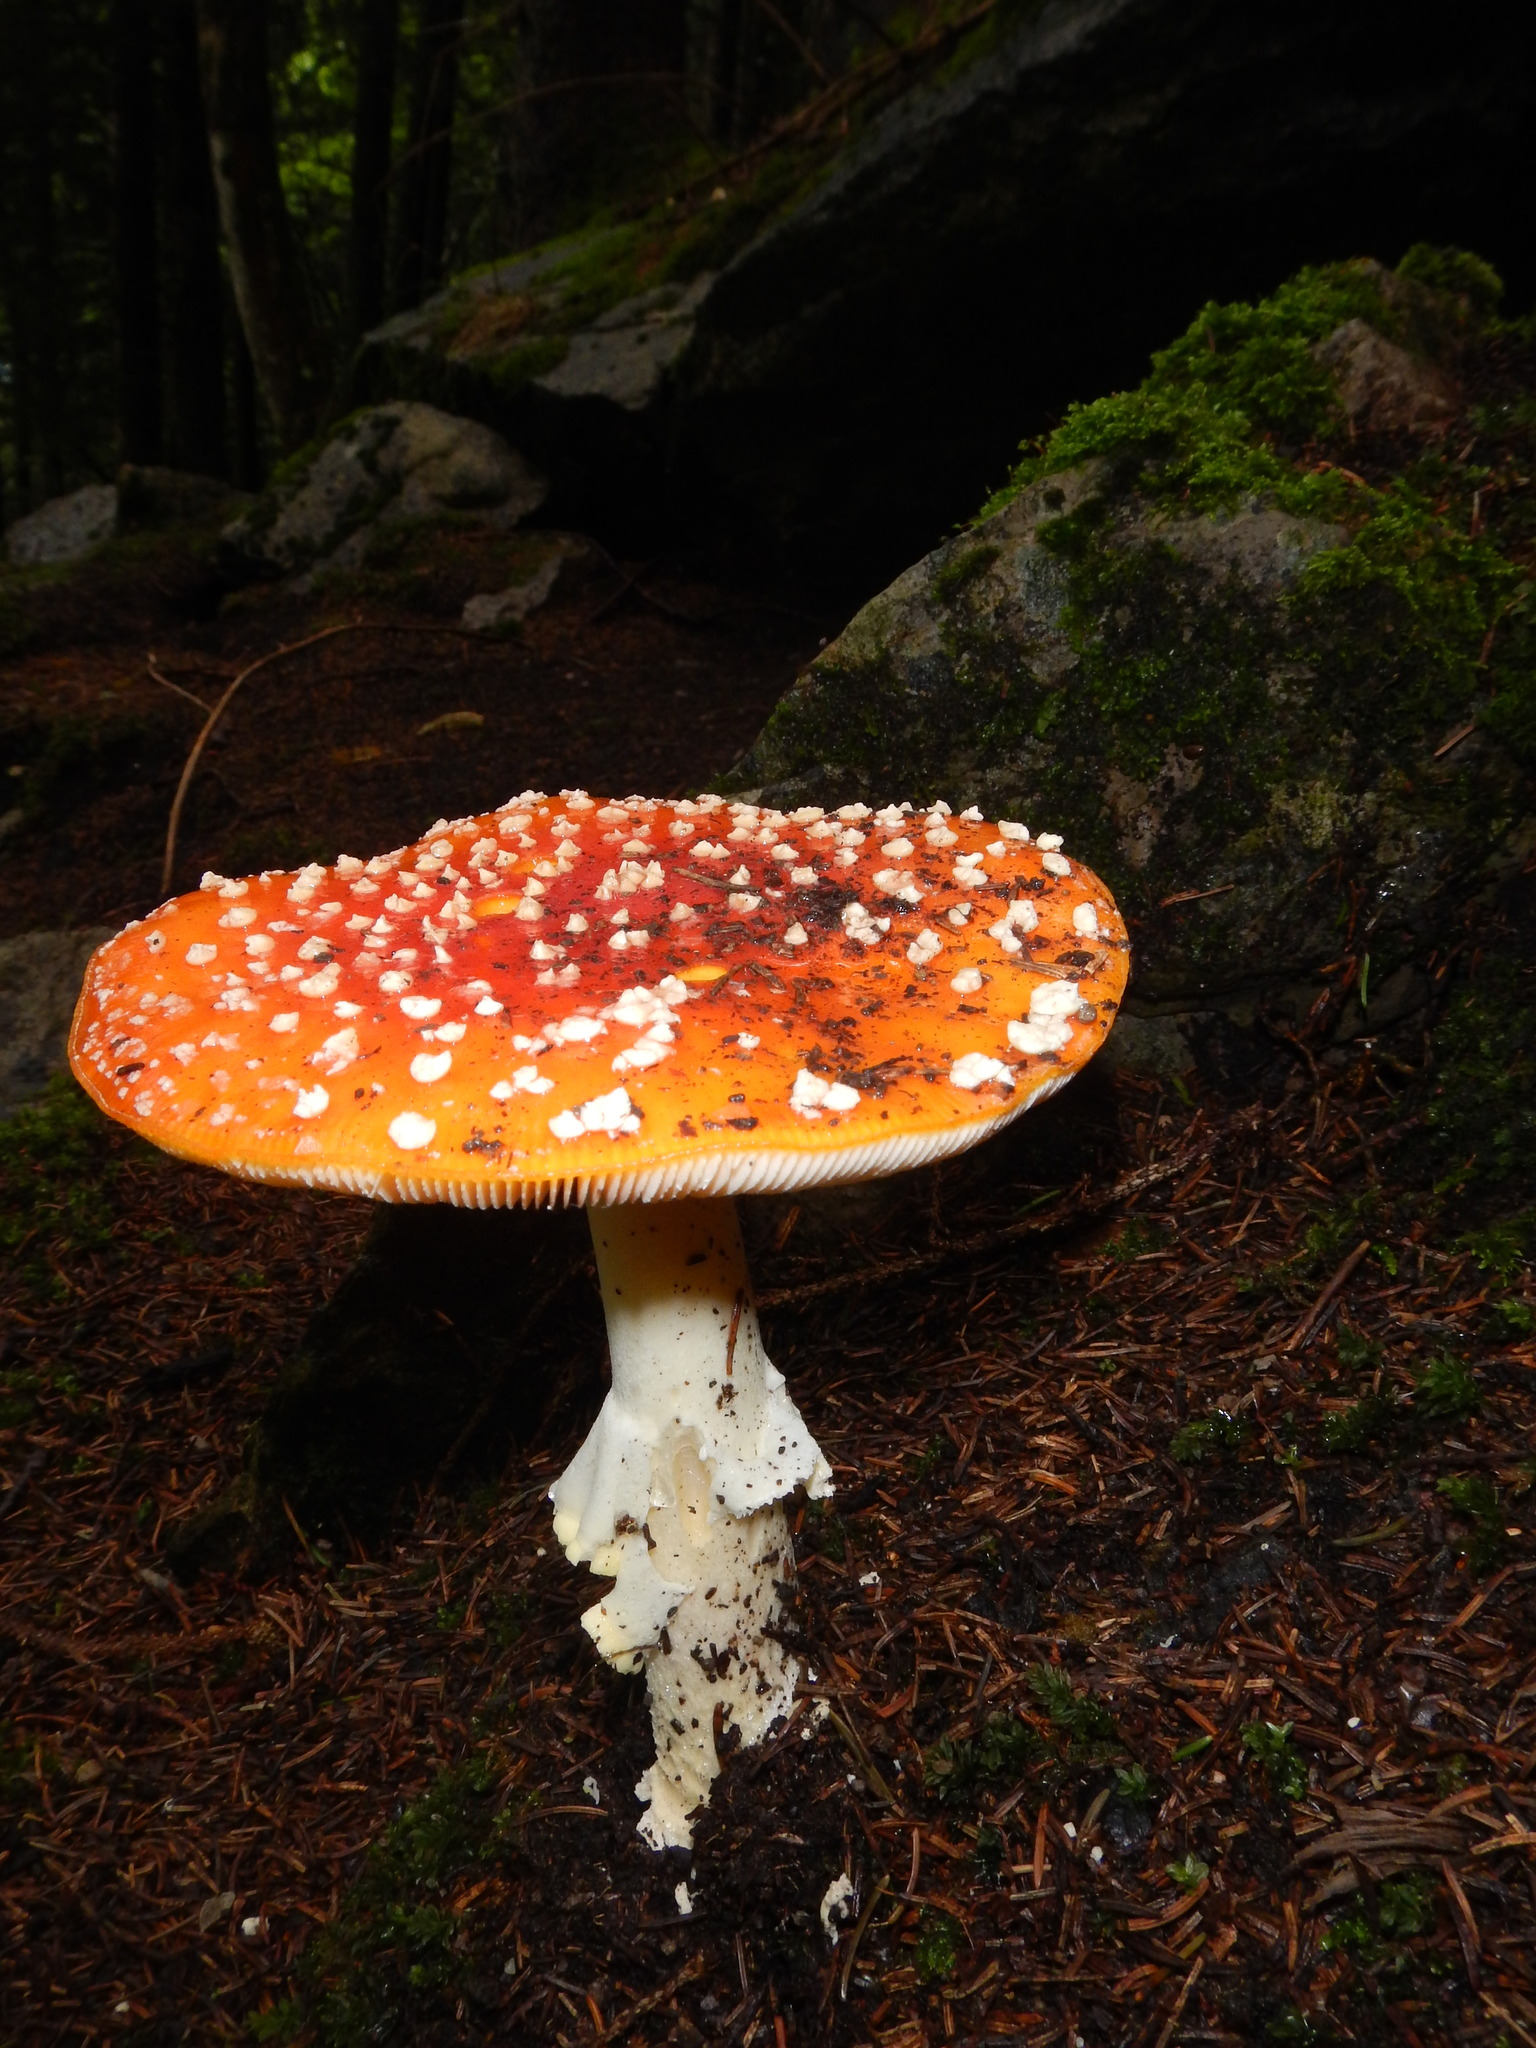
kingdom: Fungi
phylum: Basidiomycota
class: Agaricomycetes
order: Agaricales
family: Amanitaceae
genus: Amanita
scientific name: Amanita muscaria
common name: Fly agaric
